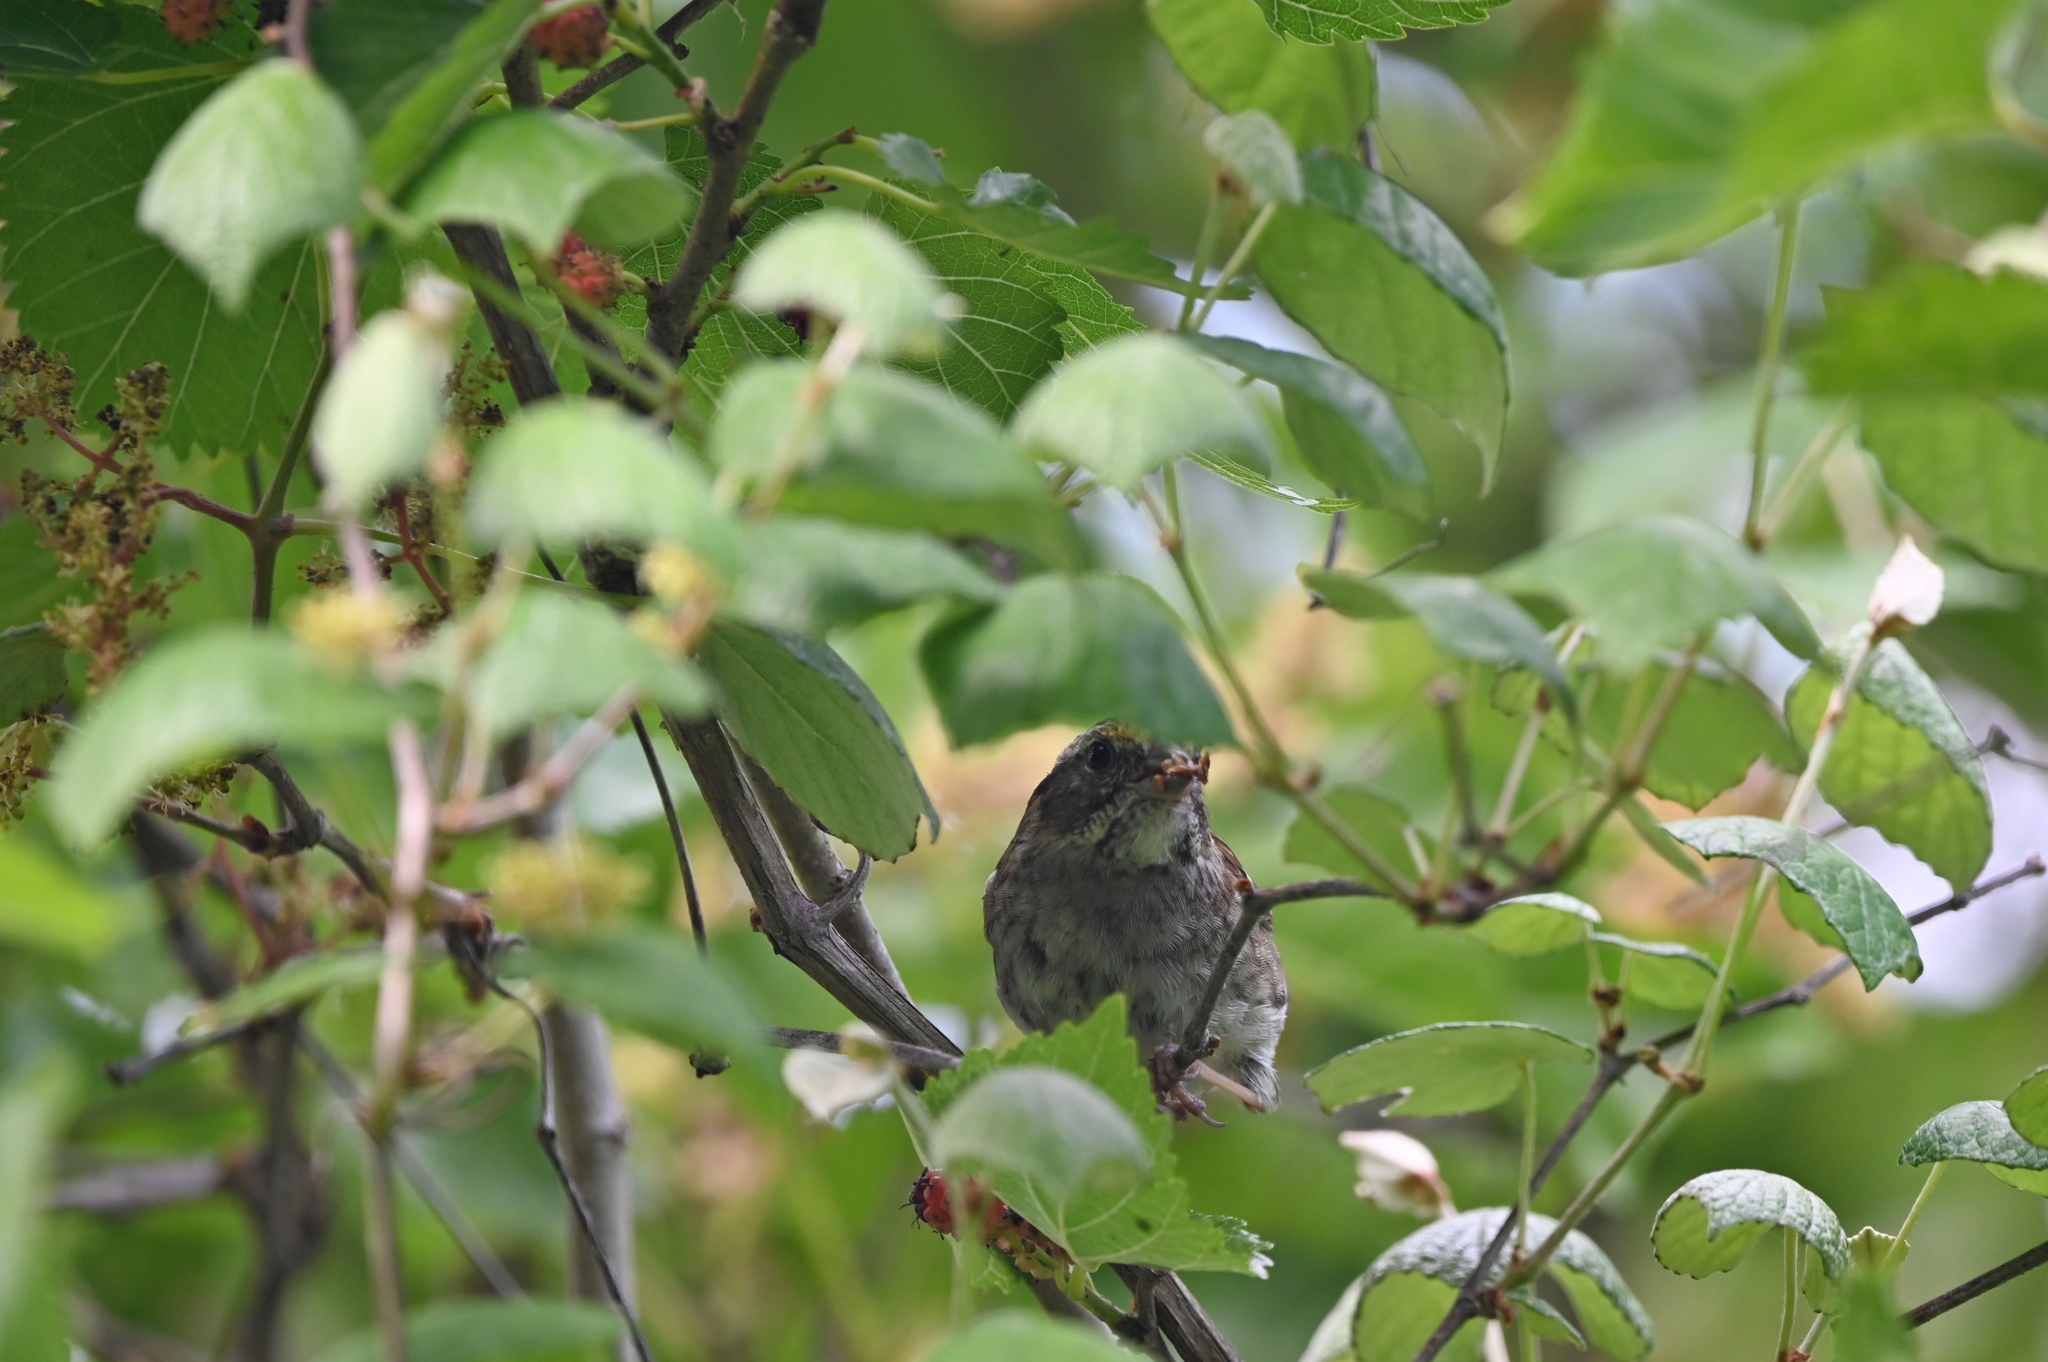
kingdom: Animalia
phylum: Chordata
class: Aves
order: Passeriformes
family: Passerellidae
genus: Zonotrichia
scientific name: Zonotrichia albicollis
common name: White-throated sparrow
